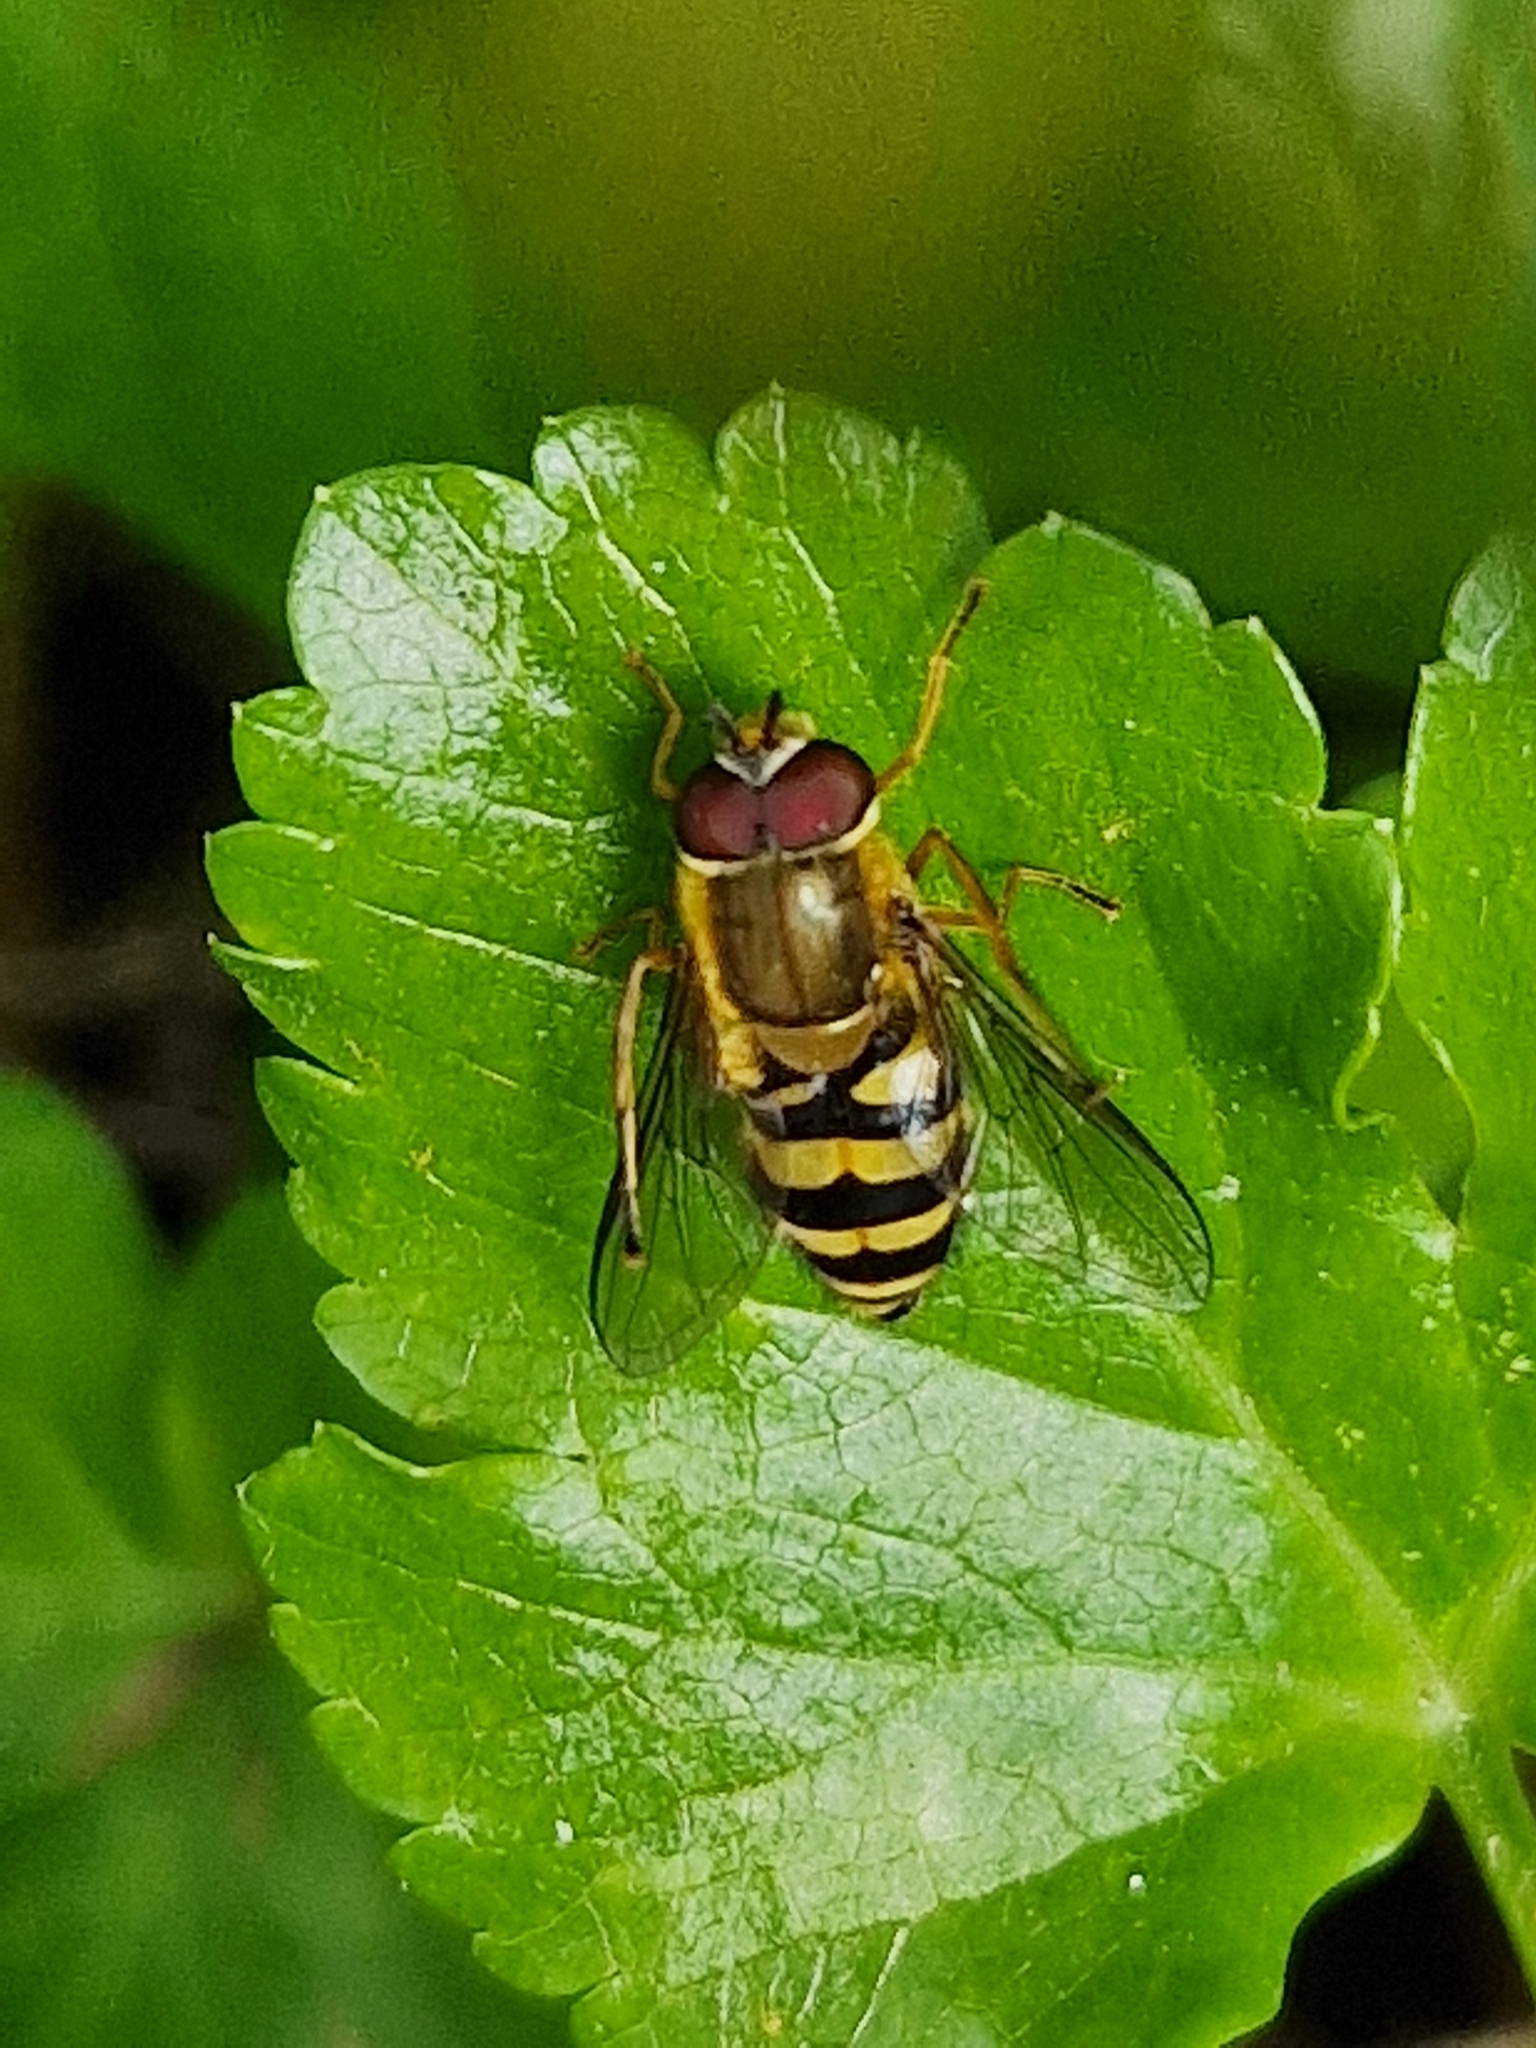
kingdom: Animalia
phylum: Arthropoda
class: Insecta
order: Diptera
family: Syrphidae
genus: Syrphus
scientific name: Syrphus
